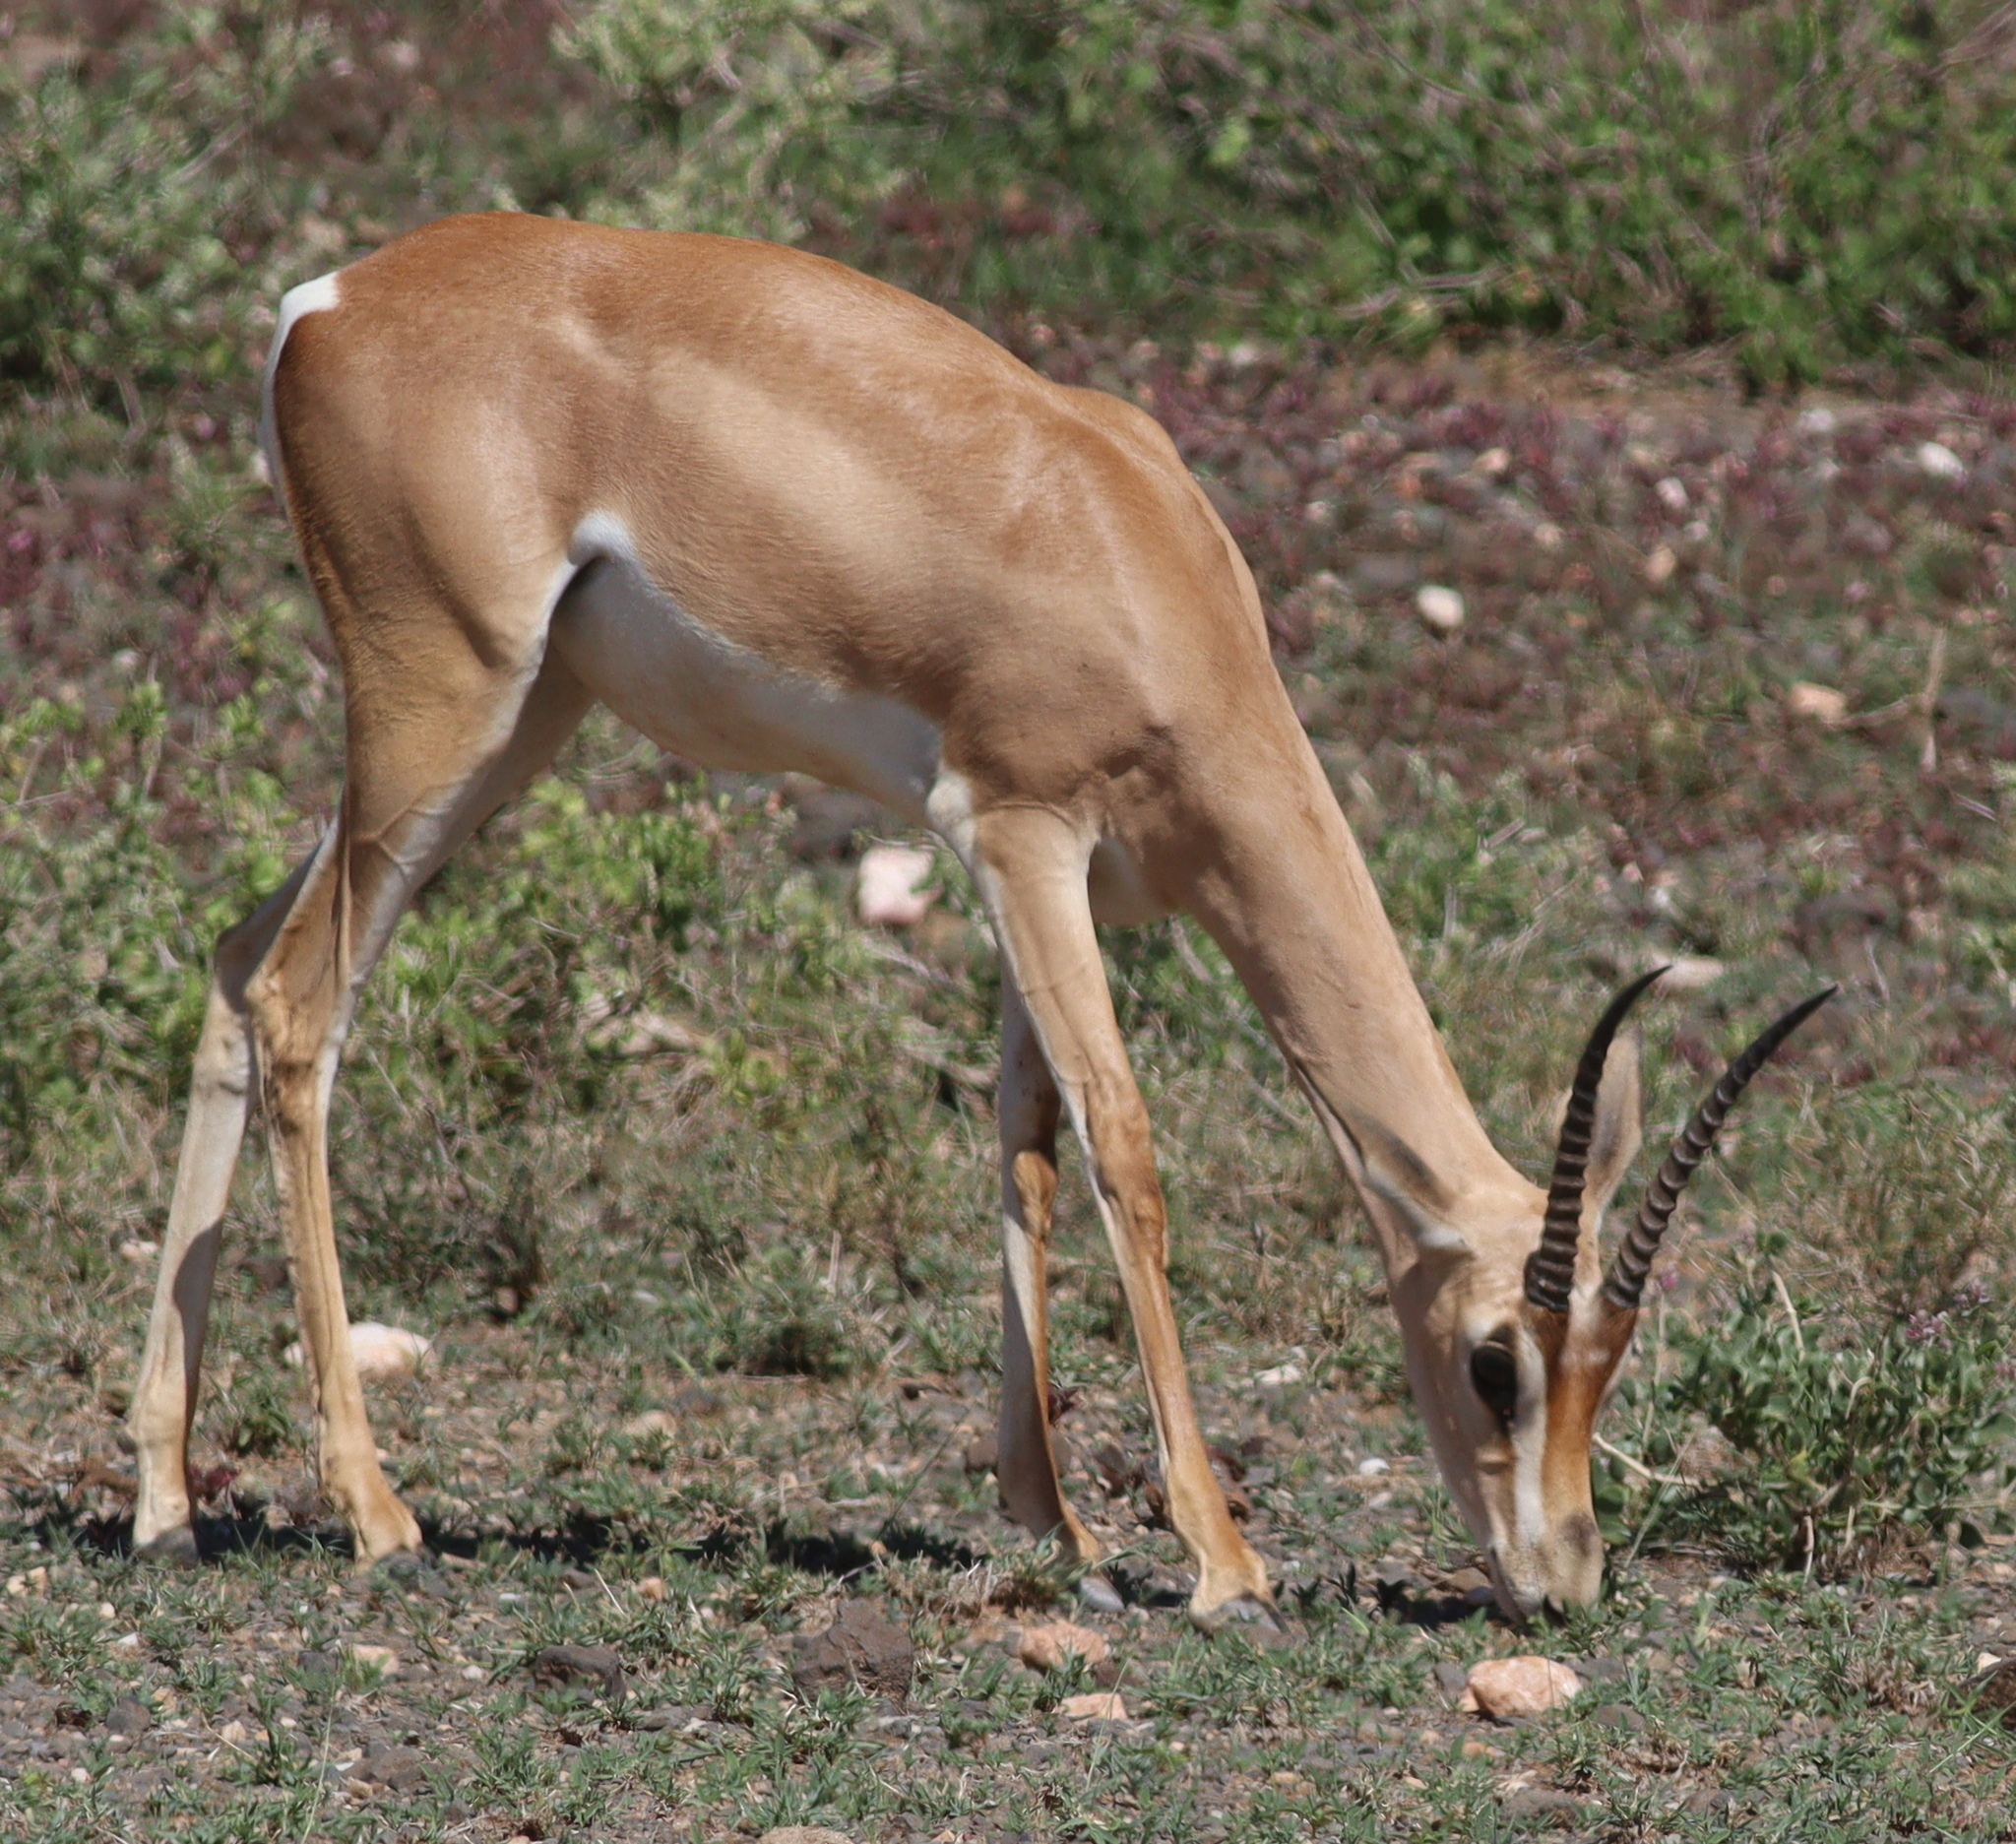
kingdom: Animalia
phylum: Chordata
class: Mammalia
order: Artiodactyla
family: Bovidae
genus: Nanger
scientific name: Nanger granti
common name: Grant's gazelle
